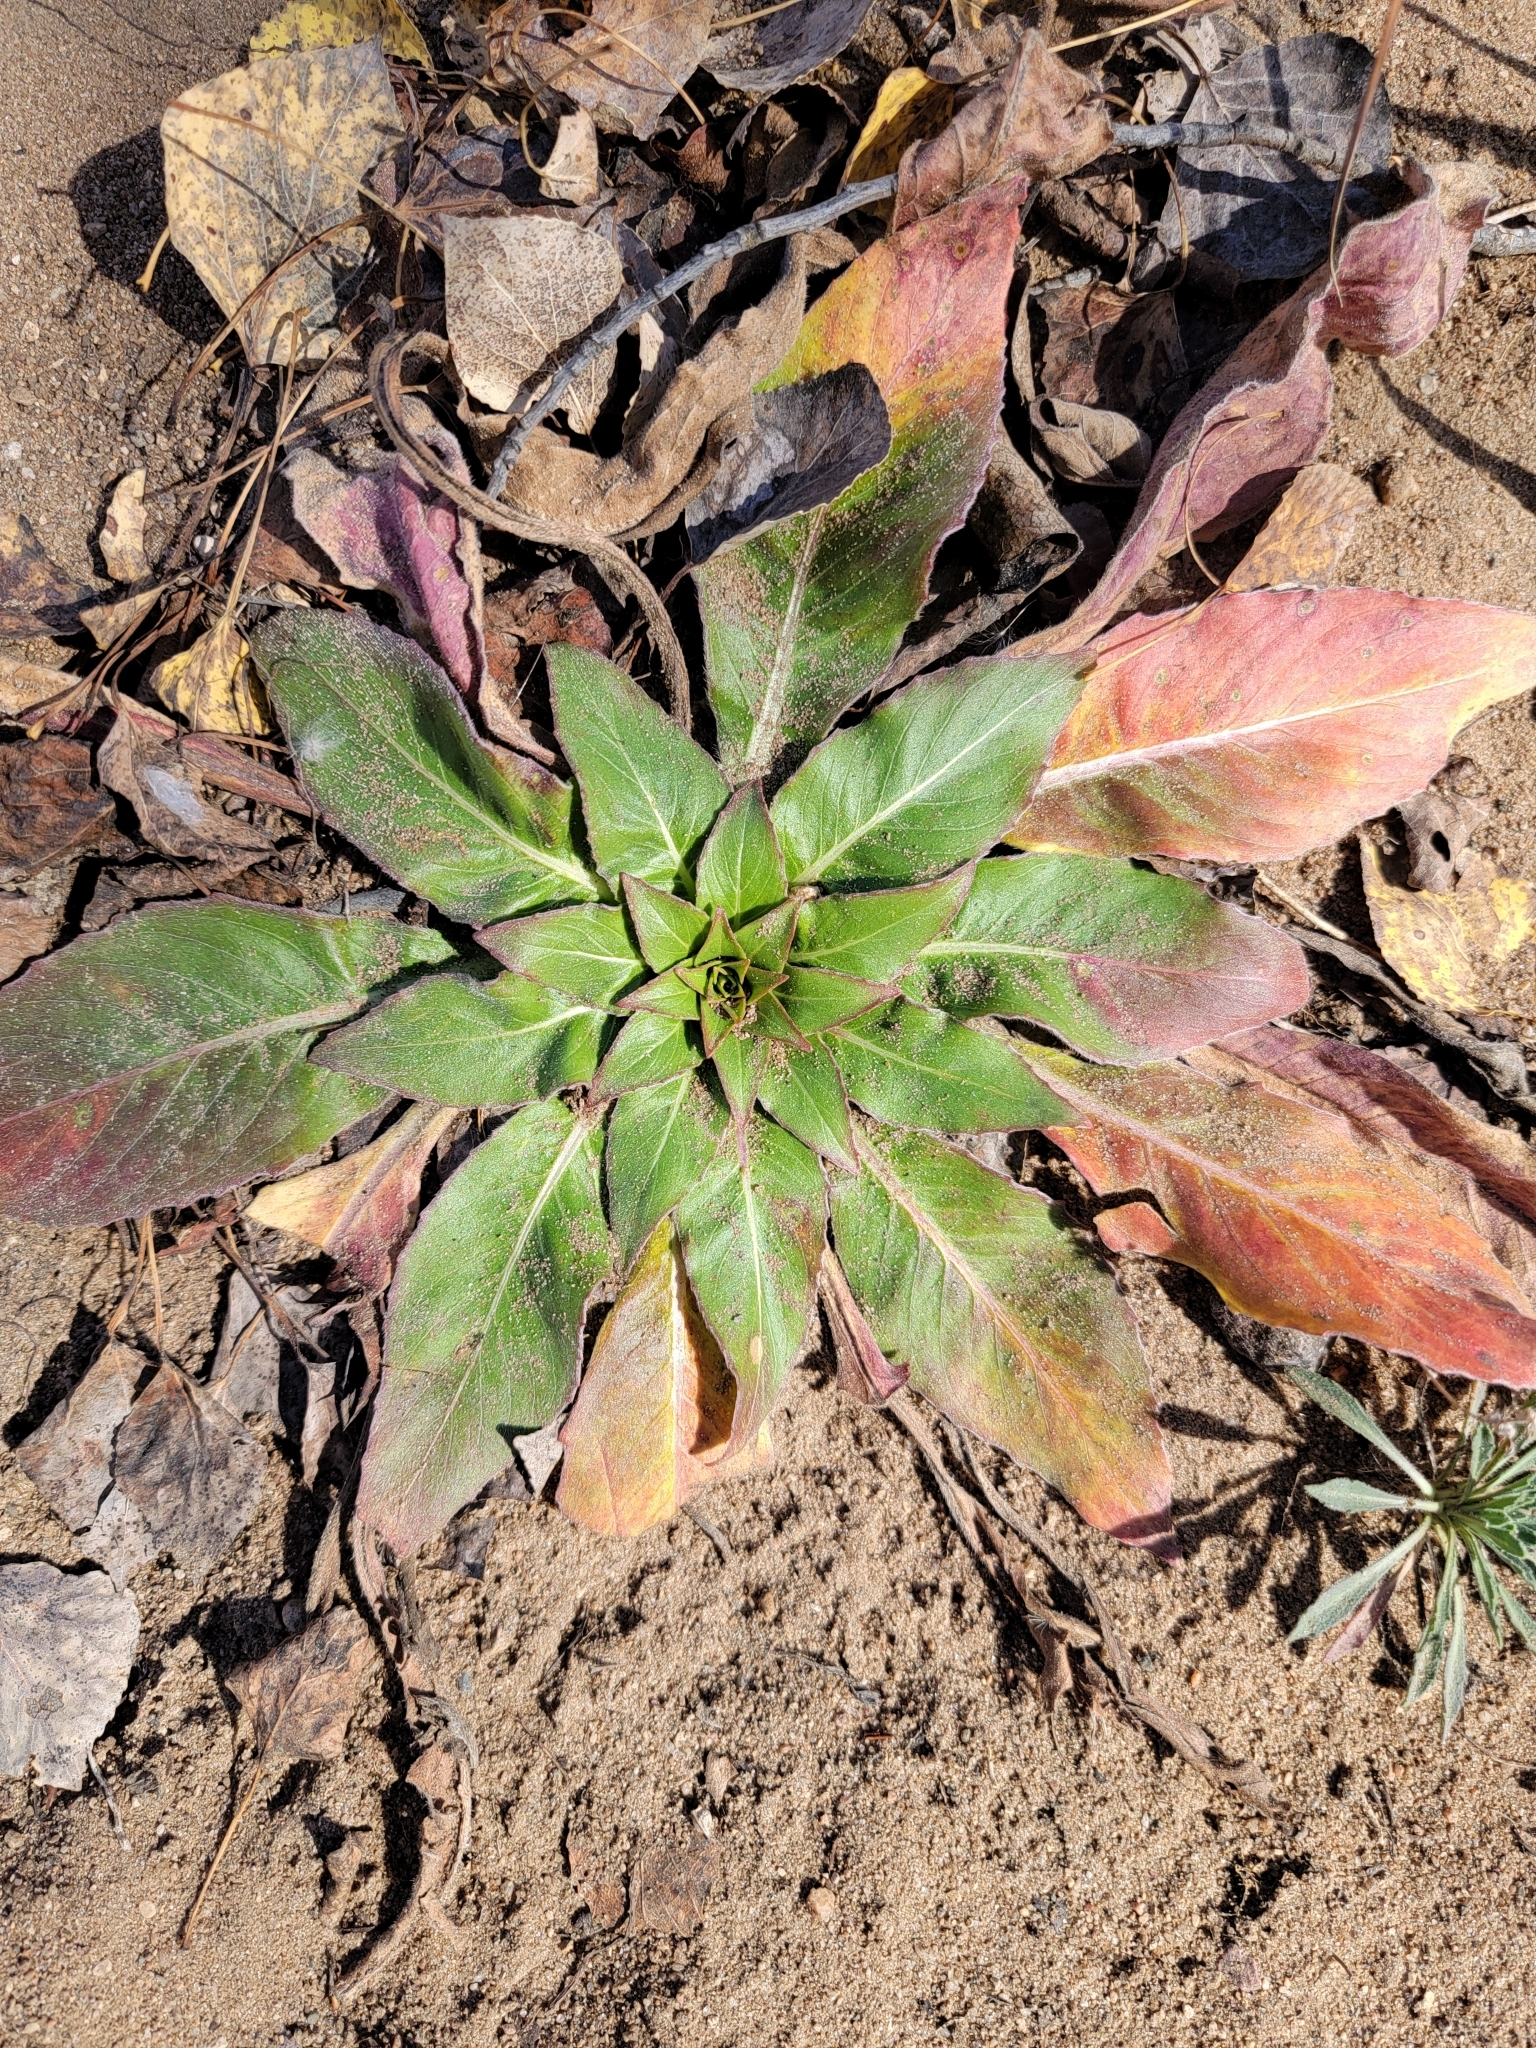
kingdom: Plantae
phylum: Tracheophyta
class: Magnoliopsida
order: Myrtales
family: Onagraceae
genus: Oenothera
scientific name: Oenothera biennis
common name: Common evening-primrose
